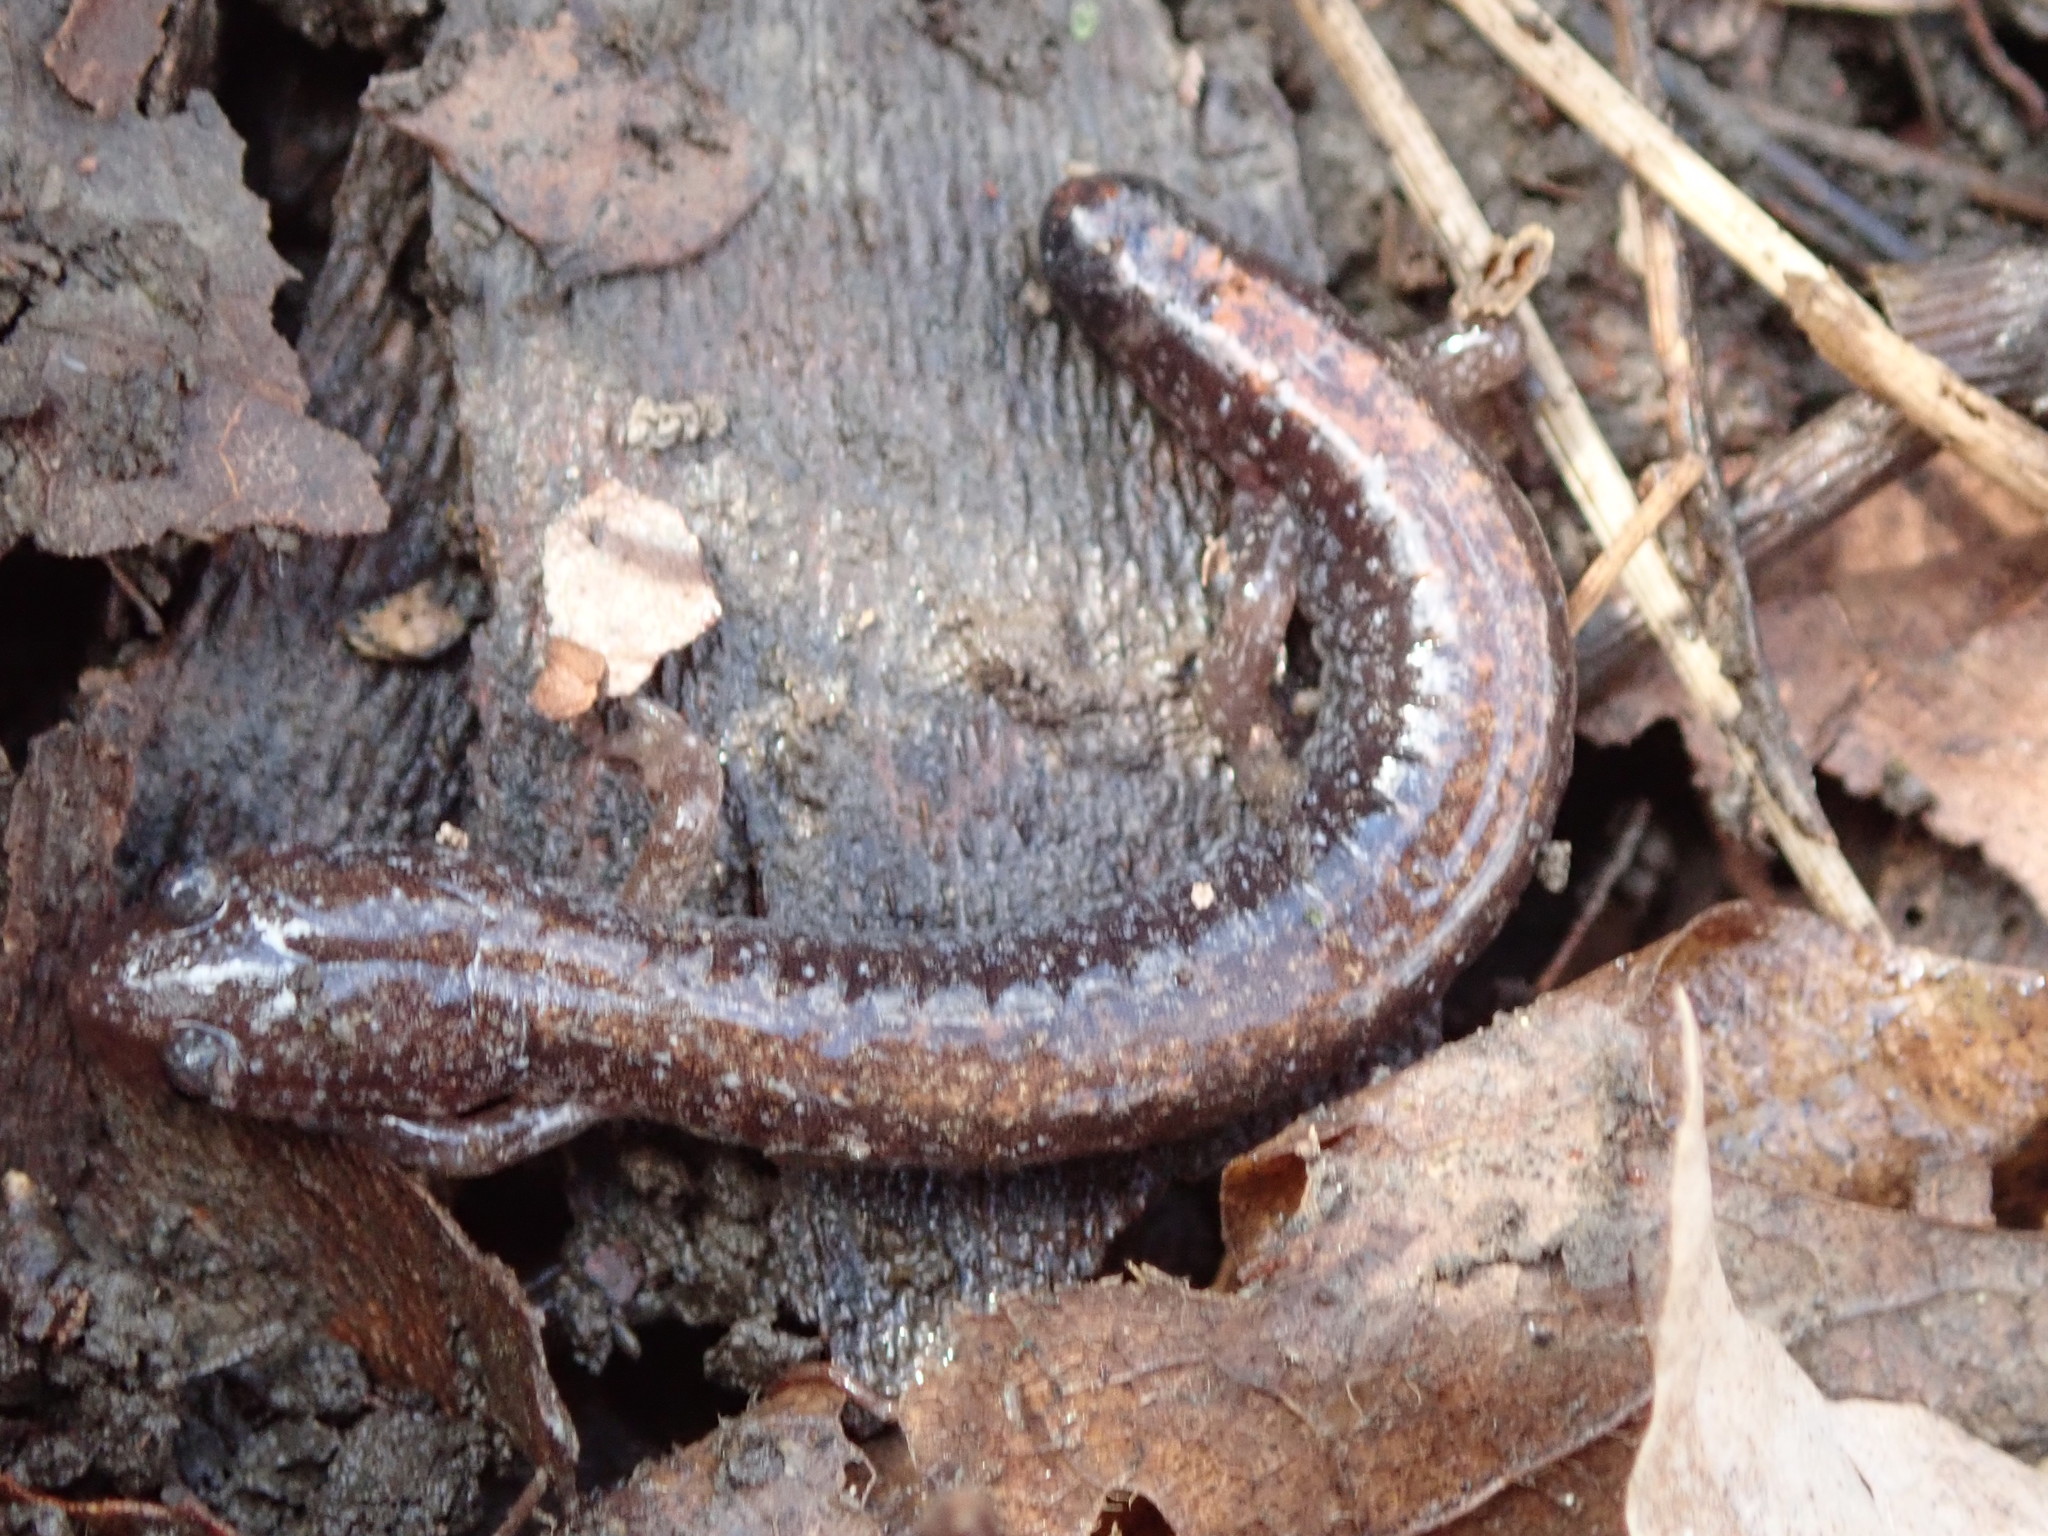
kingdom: Animalia
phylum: Chordata
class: Amphibia
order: Caudata
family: Plethodontidae
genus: Plethodon
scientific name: Plethodon cinereus
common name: Redback salamander
